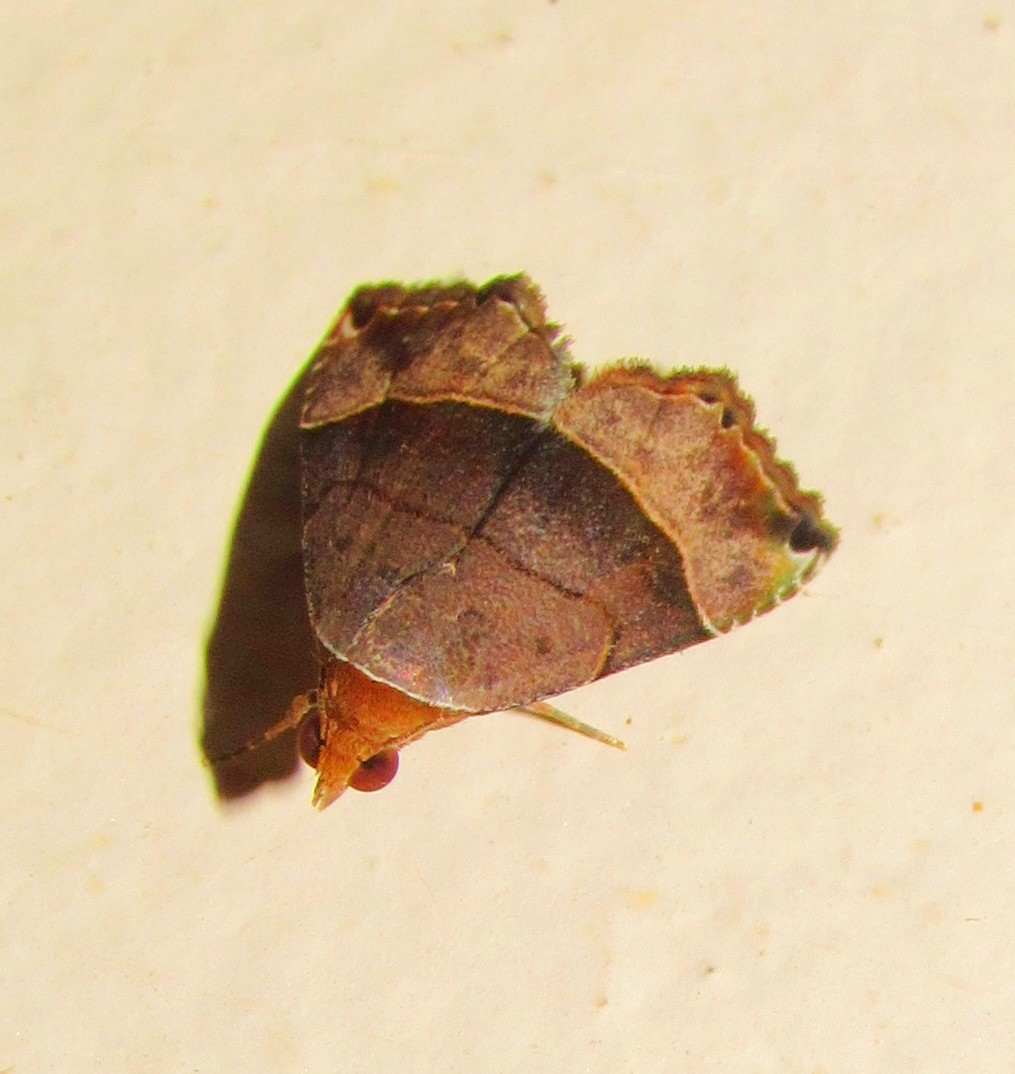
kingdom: Animalia
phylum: Arthropoda
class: Insecta
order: Lepidoptera
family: Noctuidae
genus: Abacena
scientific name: Abacena mundula
